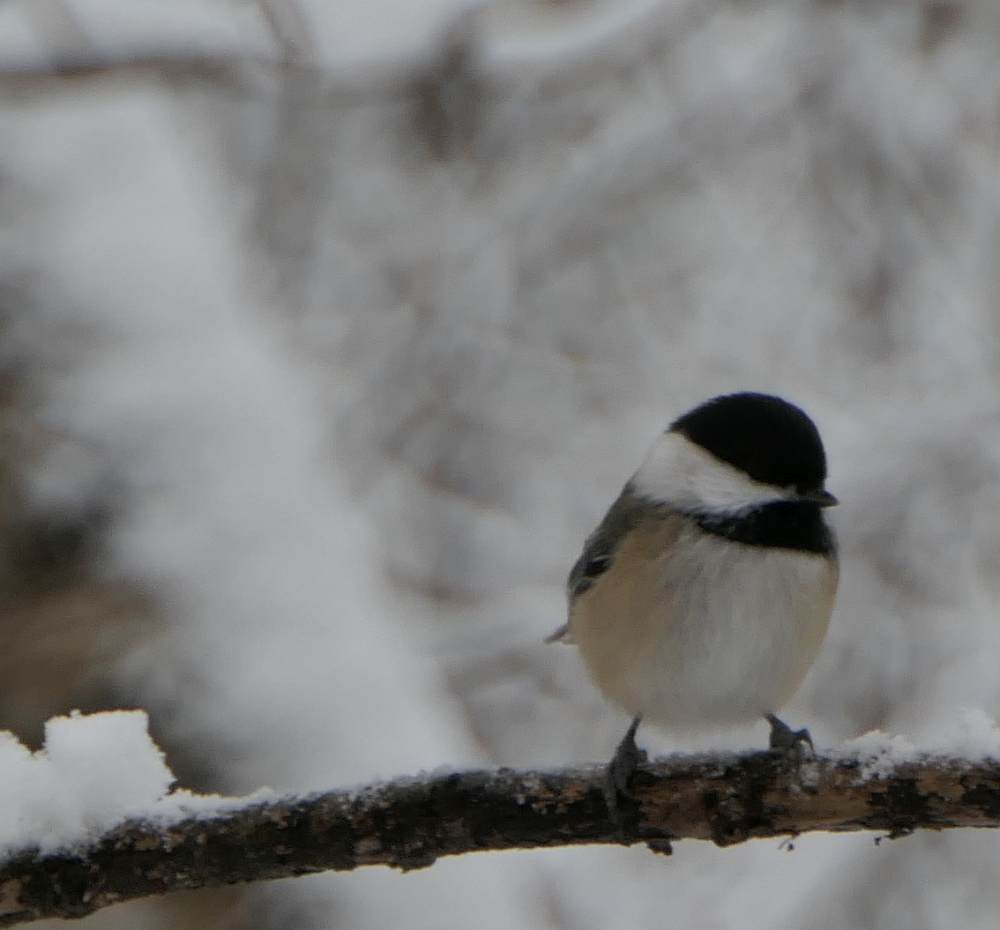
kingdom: Animalia
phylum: Chordata
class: Aves
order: Passeriformes
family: Paridae
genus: Poecile
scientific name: Poecile atricapillus
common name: Black-capped chickadee
